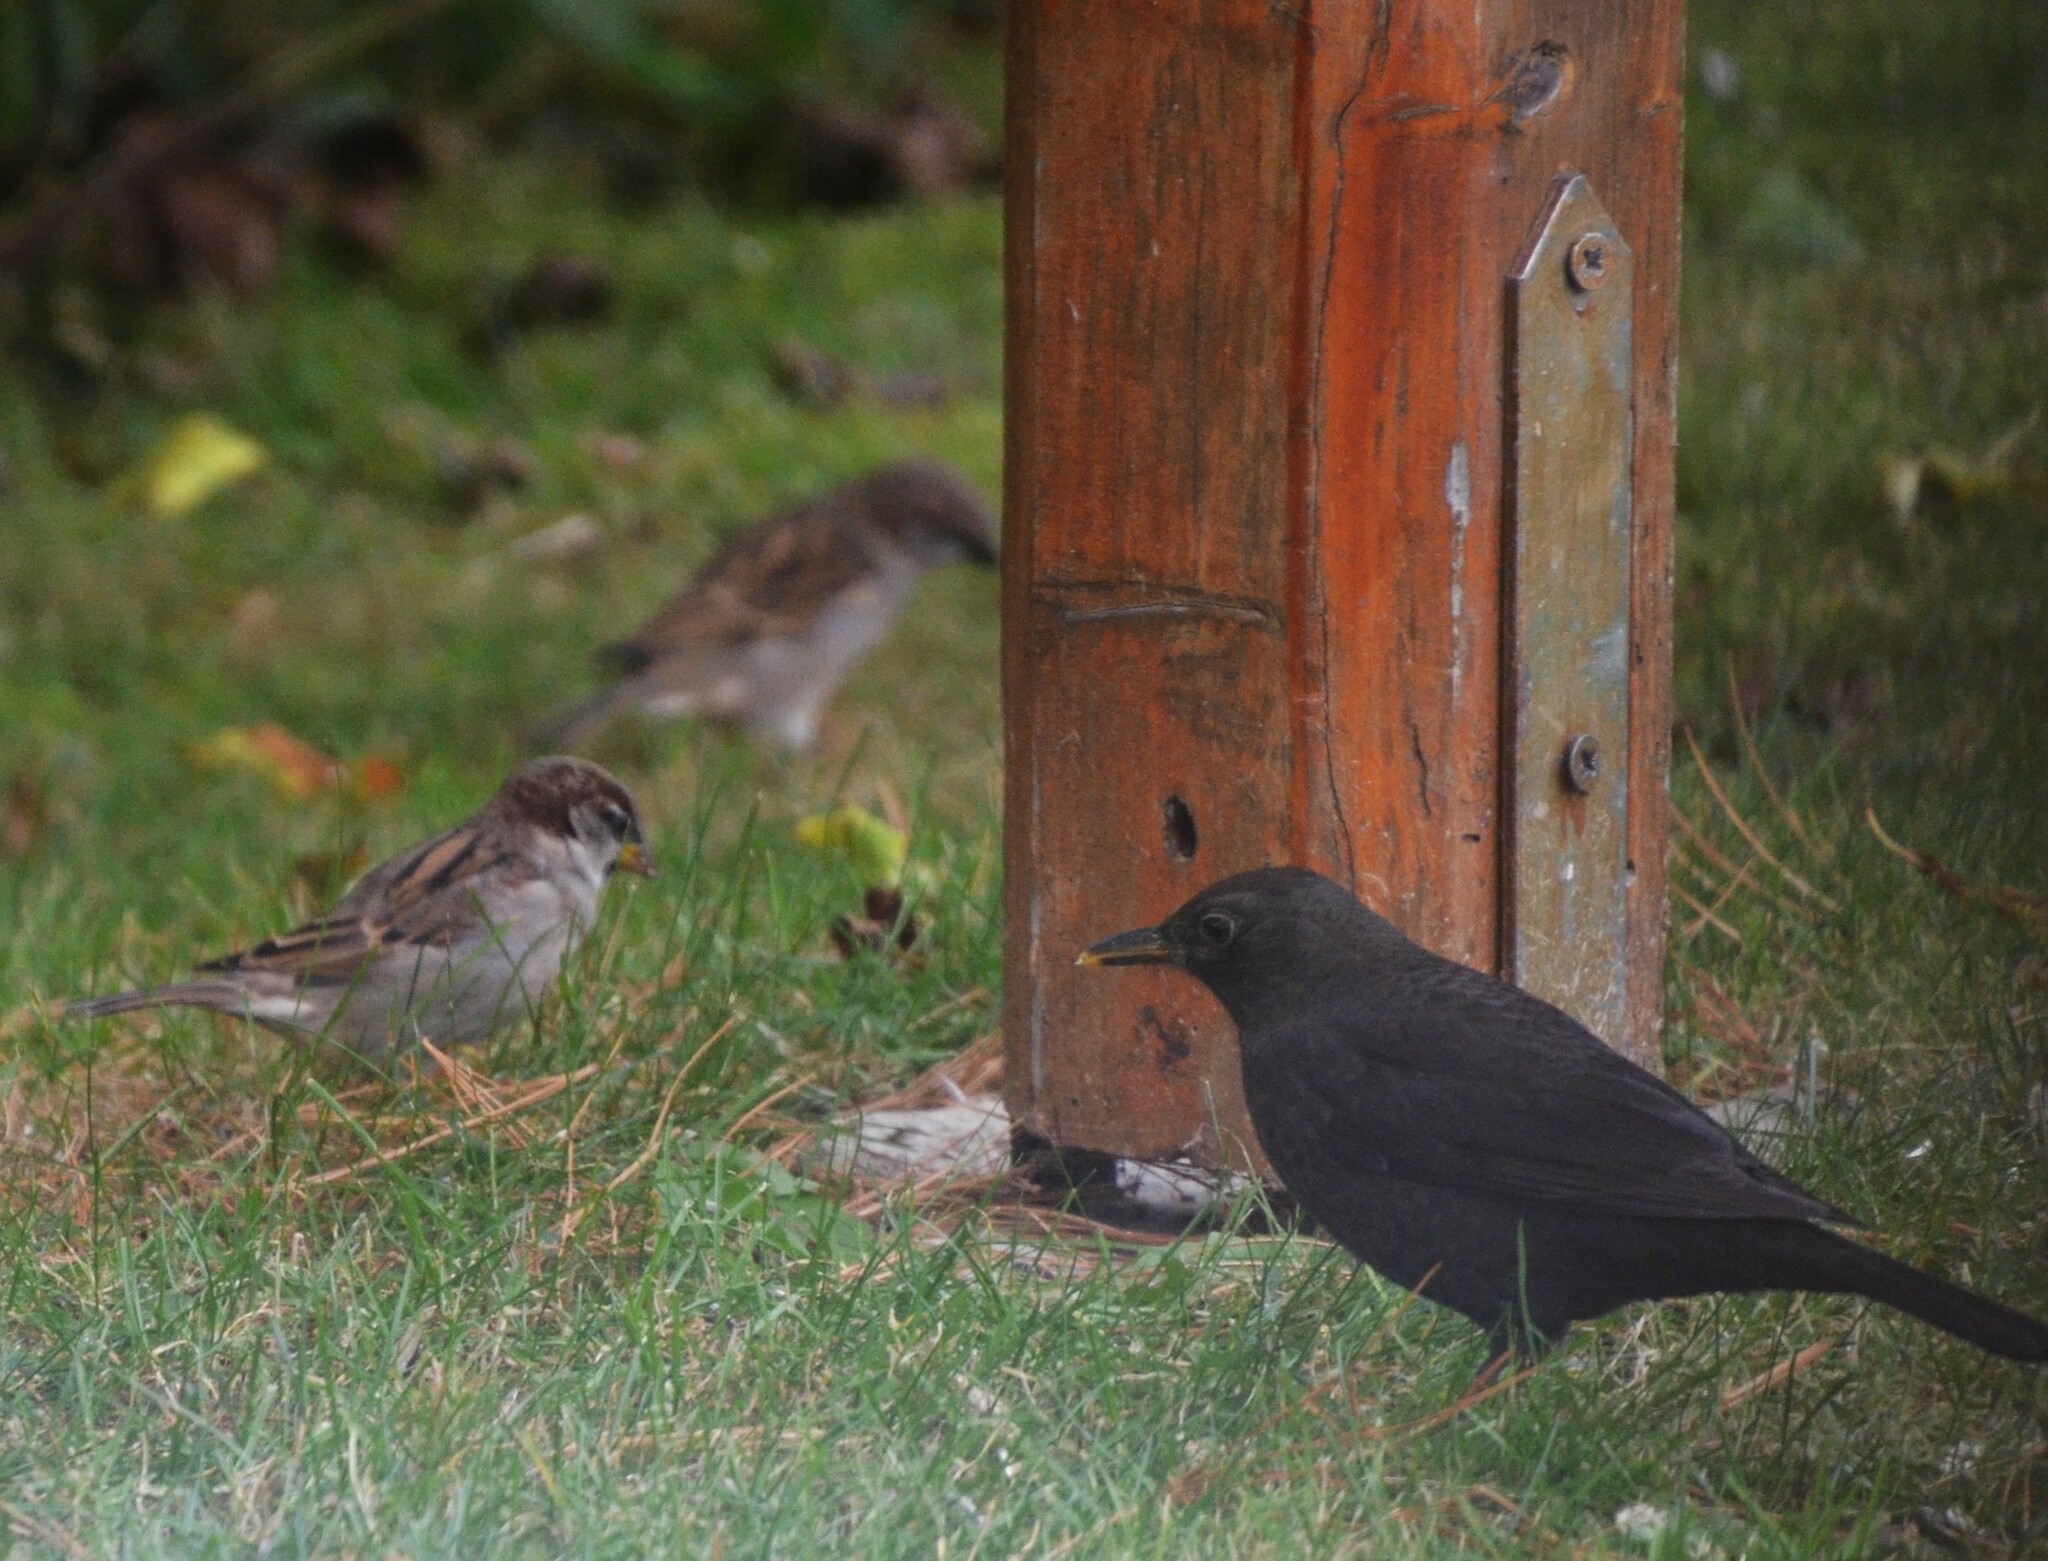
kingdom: Animalia
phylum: Chordata
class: Aves
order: Passeriformes
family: Turdidae
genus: Turdus
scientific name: Turdus merula
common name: Common blackbird
